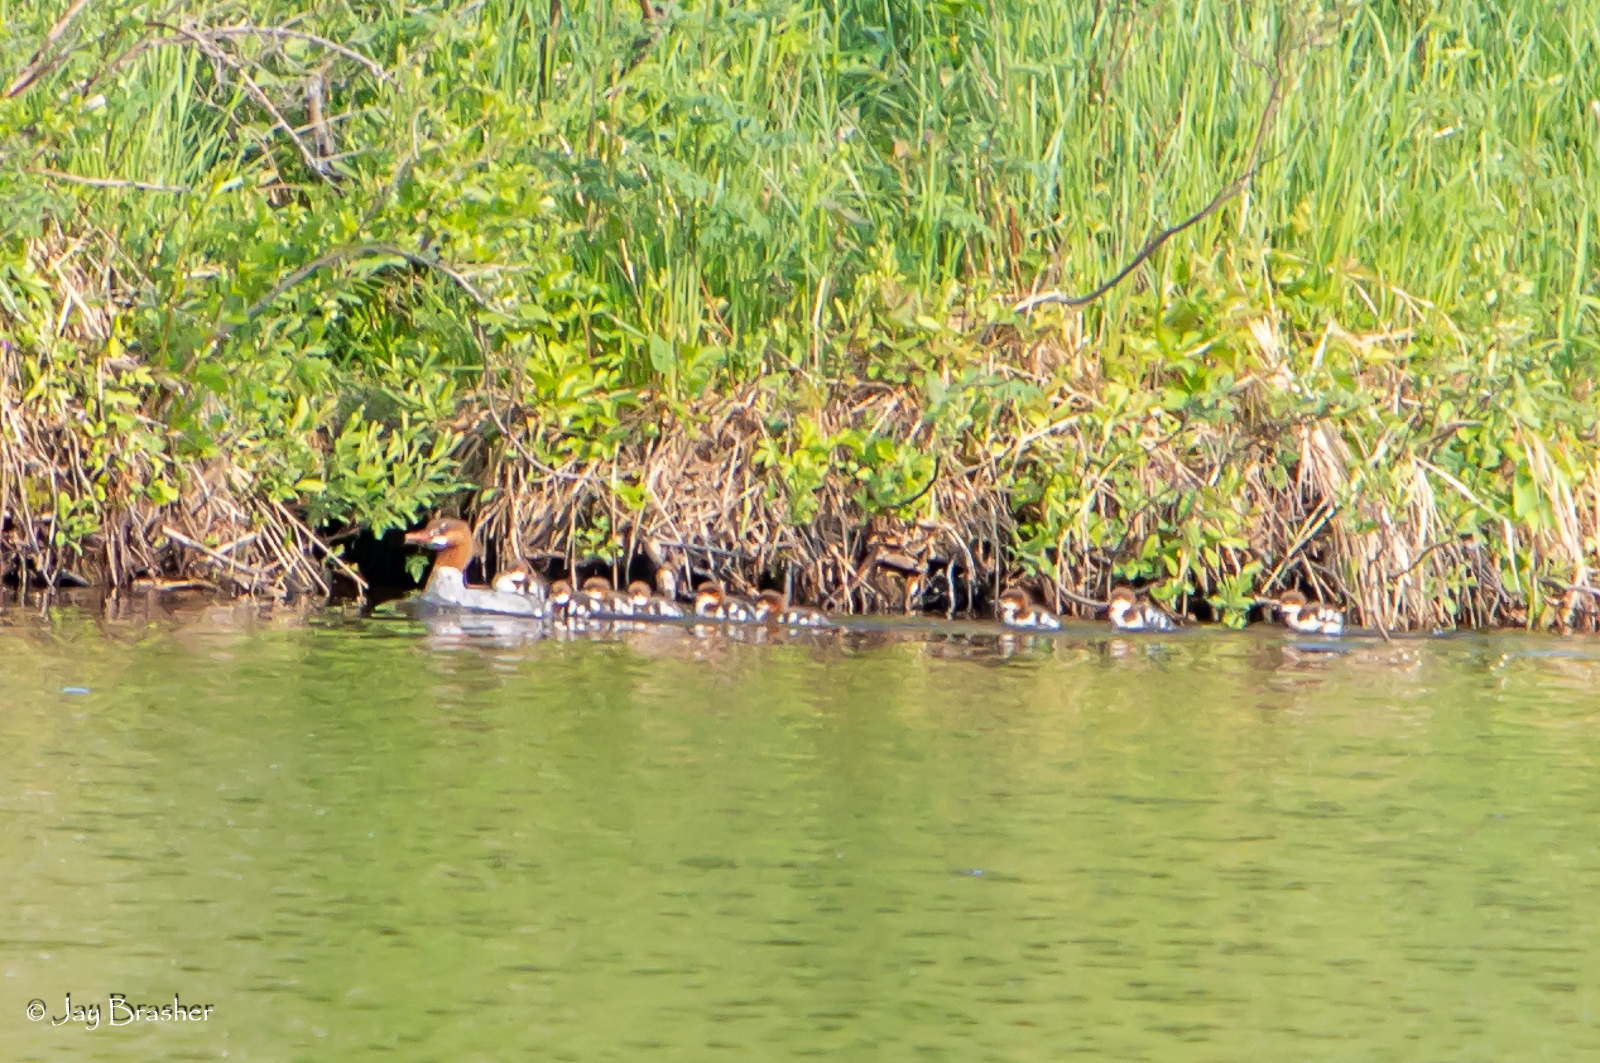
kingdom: Animalia
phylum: Chordata
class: Aves
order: Anseriformes
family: Anatidae
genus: Mergus
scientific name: Mergus merganser
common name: Common merganser
